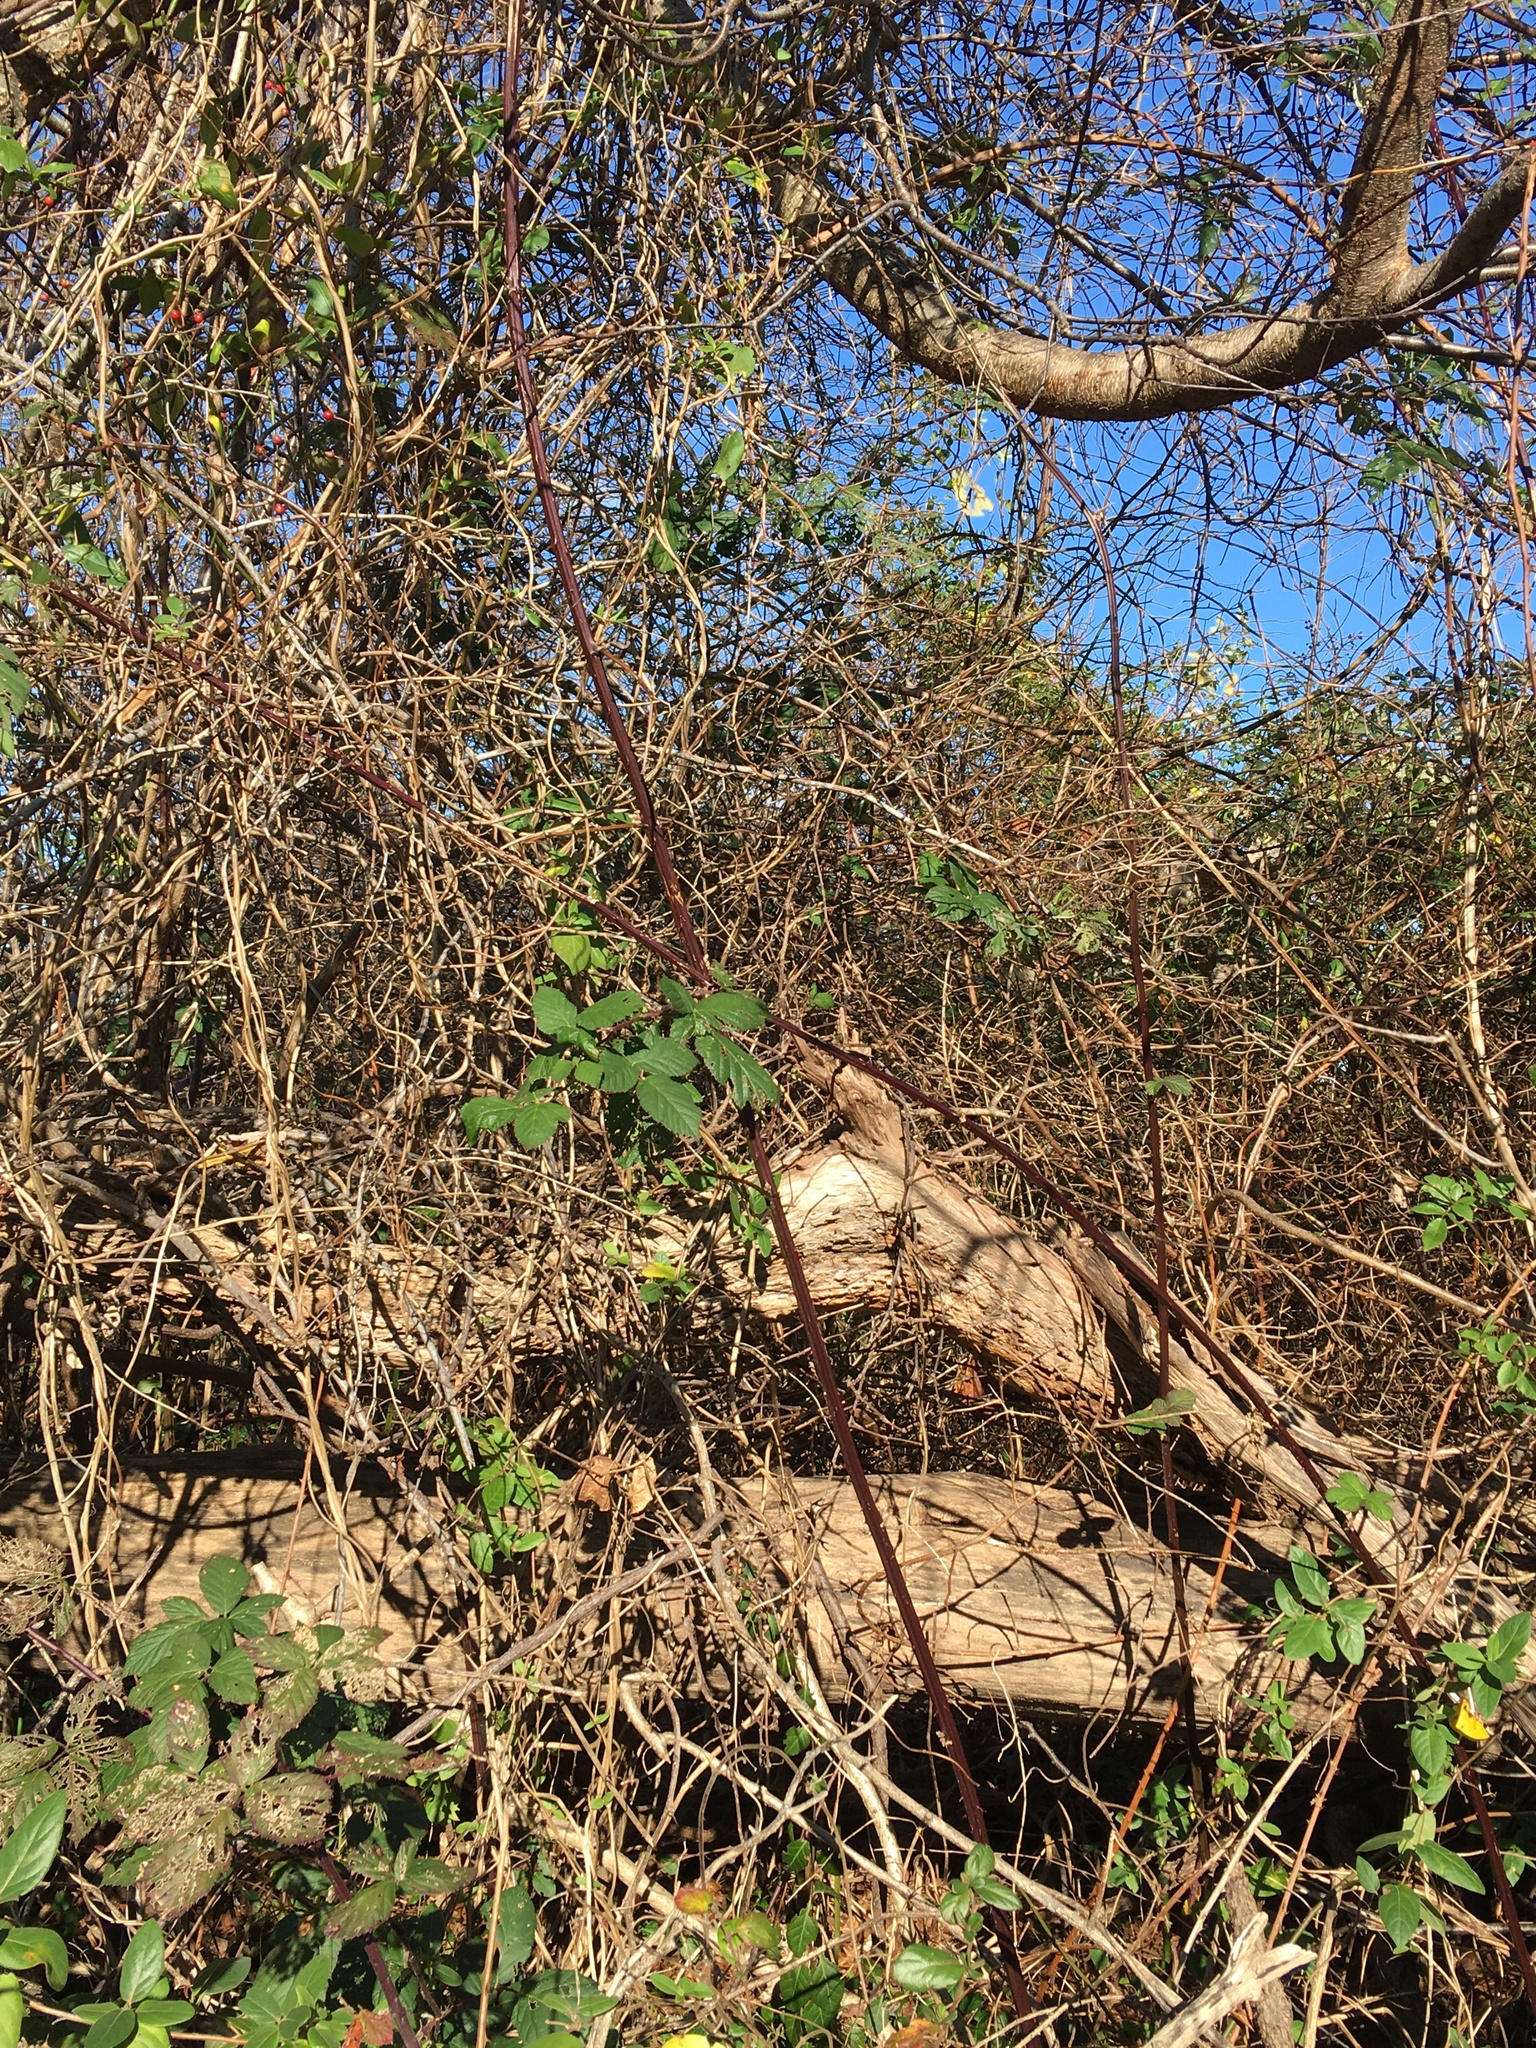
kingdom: Plantae
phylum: Tracheophyta
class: Magnoliopsida
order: Rosales
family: Rosaceae
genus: Rubus
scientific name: Rubus bifrons
